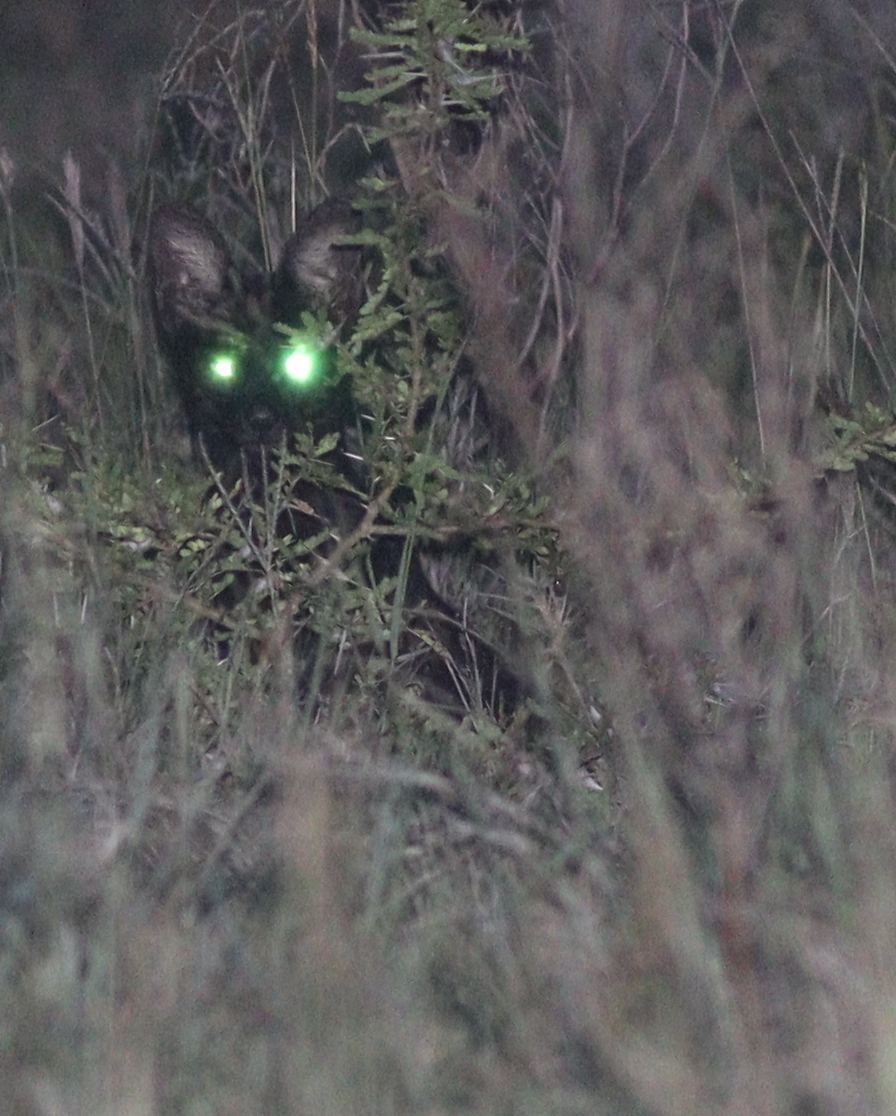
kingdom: Animalia
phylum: Chordata
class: Mammalia
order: Carnivora
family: Felidae
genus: Leptailurus
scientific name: Leptailurus serval
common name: Serval
